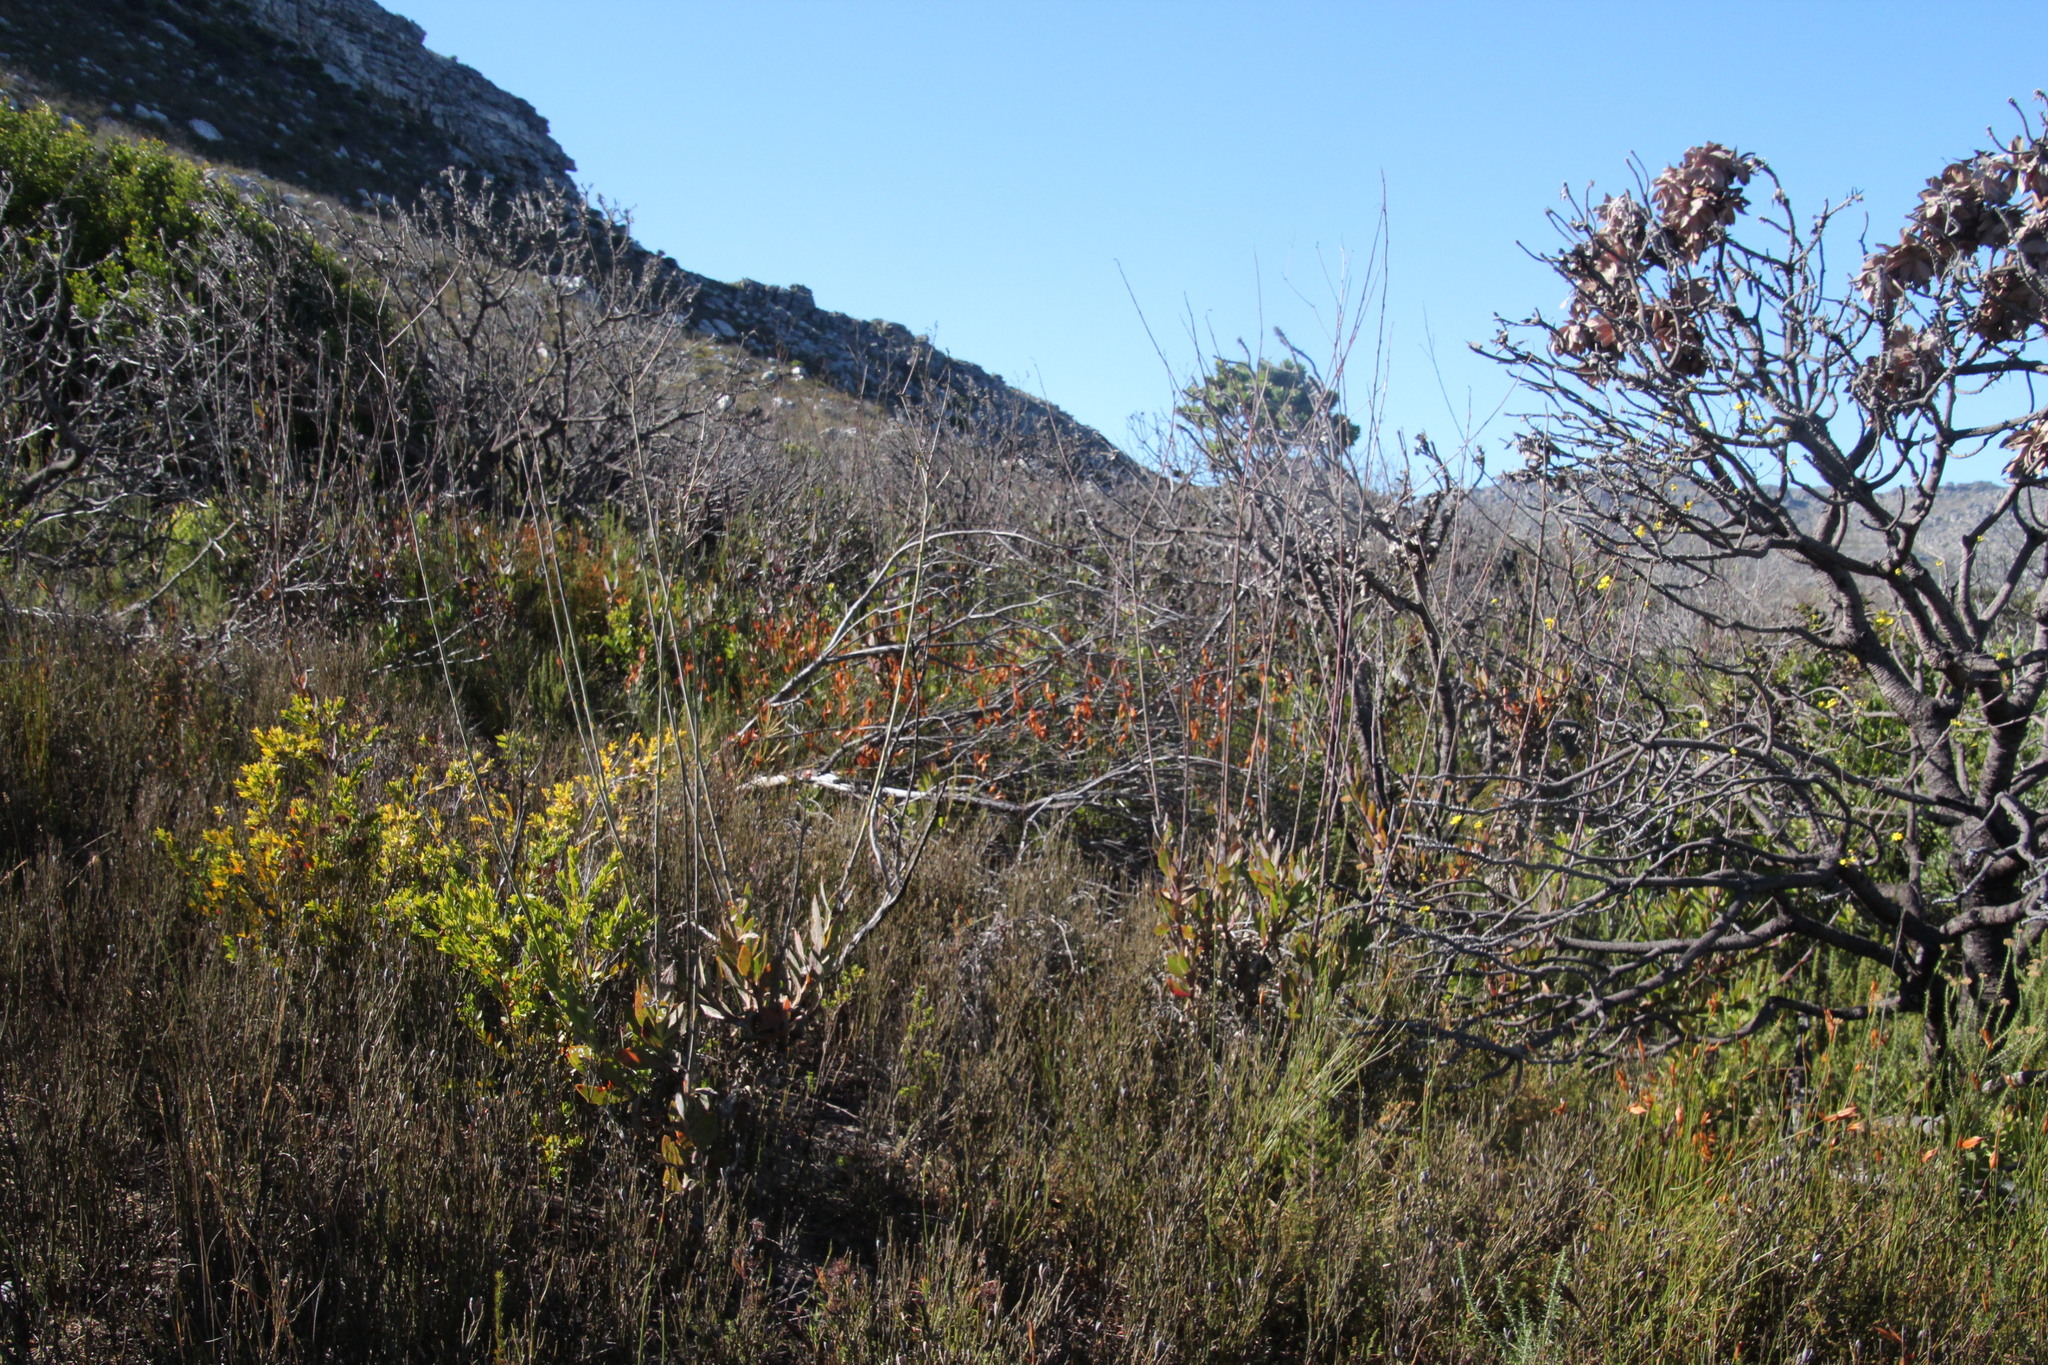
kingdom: Plantae
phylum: Tracheophyta
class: Magnoliopsida
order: Asterales
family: Asteraceae
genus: Othonna
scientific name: Othonna quinquedentata
